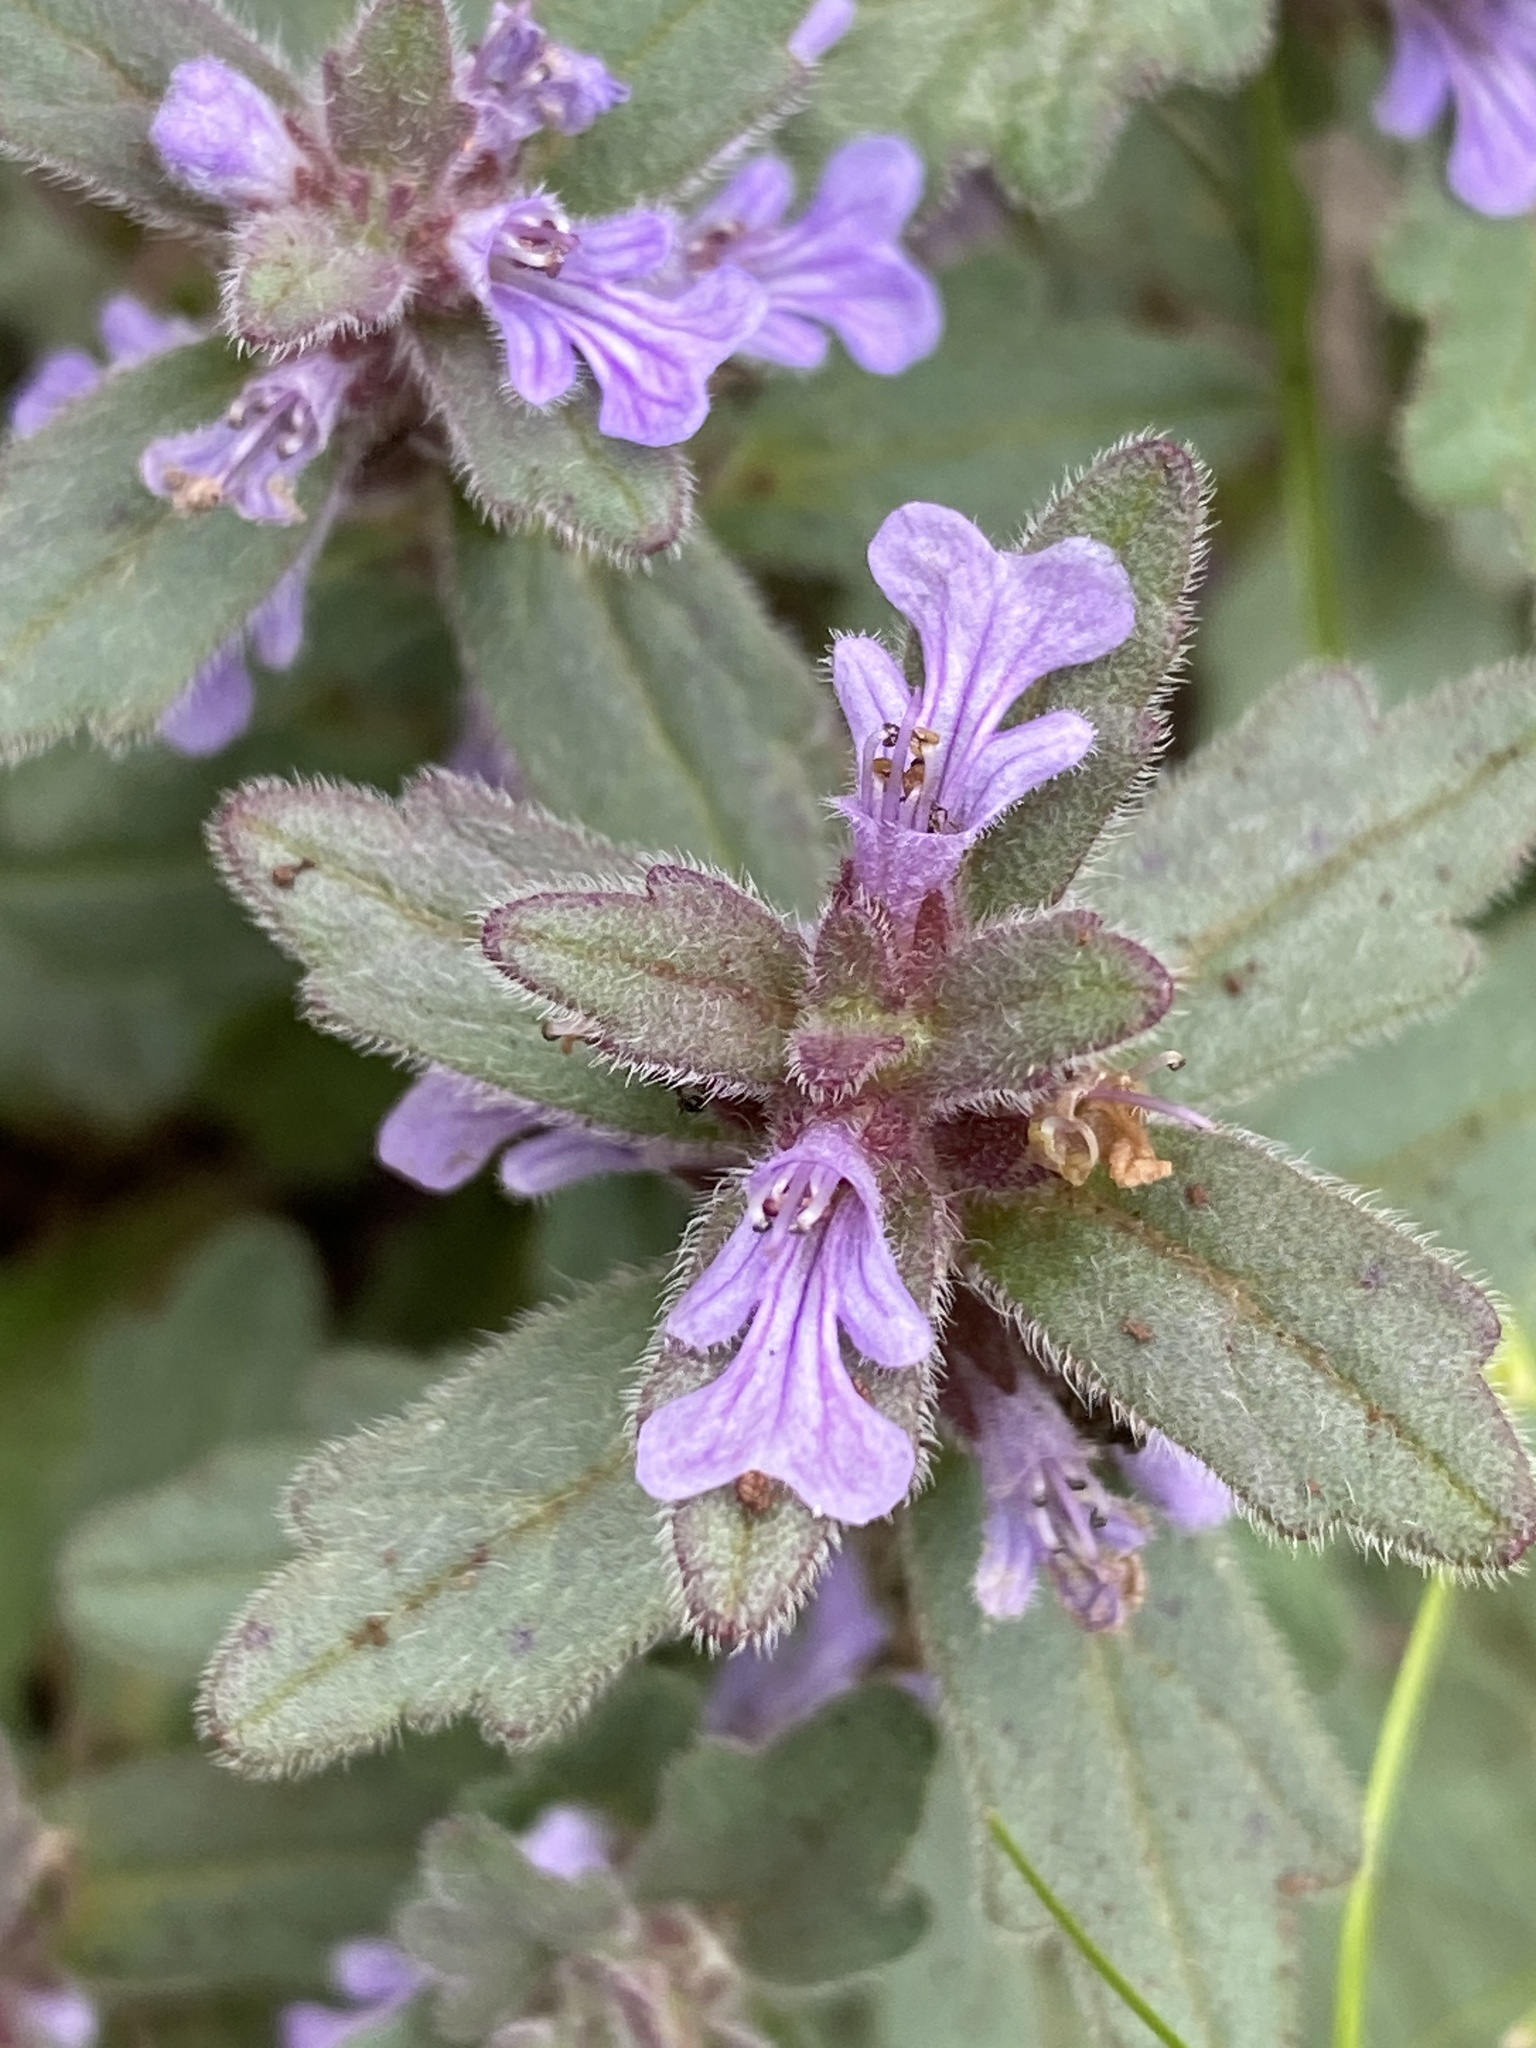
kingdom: Plantae
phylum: Tracheophyta
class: Magnoliopsida
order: Lamiales
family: Lamiaceae
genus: Ajuga
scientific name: Ajuga australis
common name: Australian bugle
